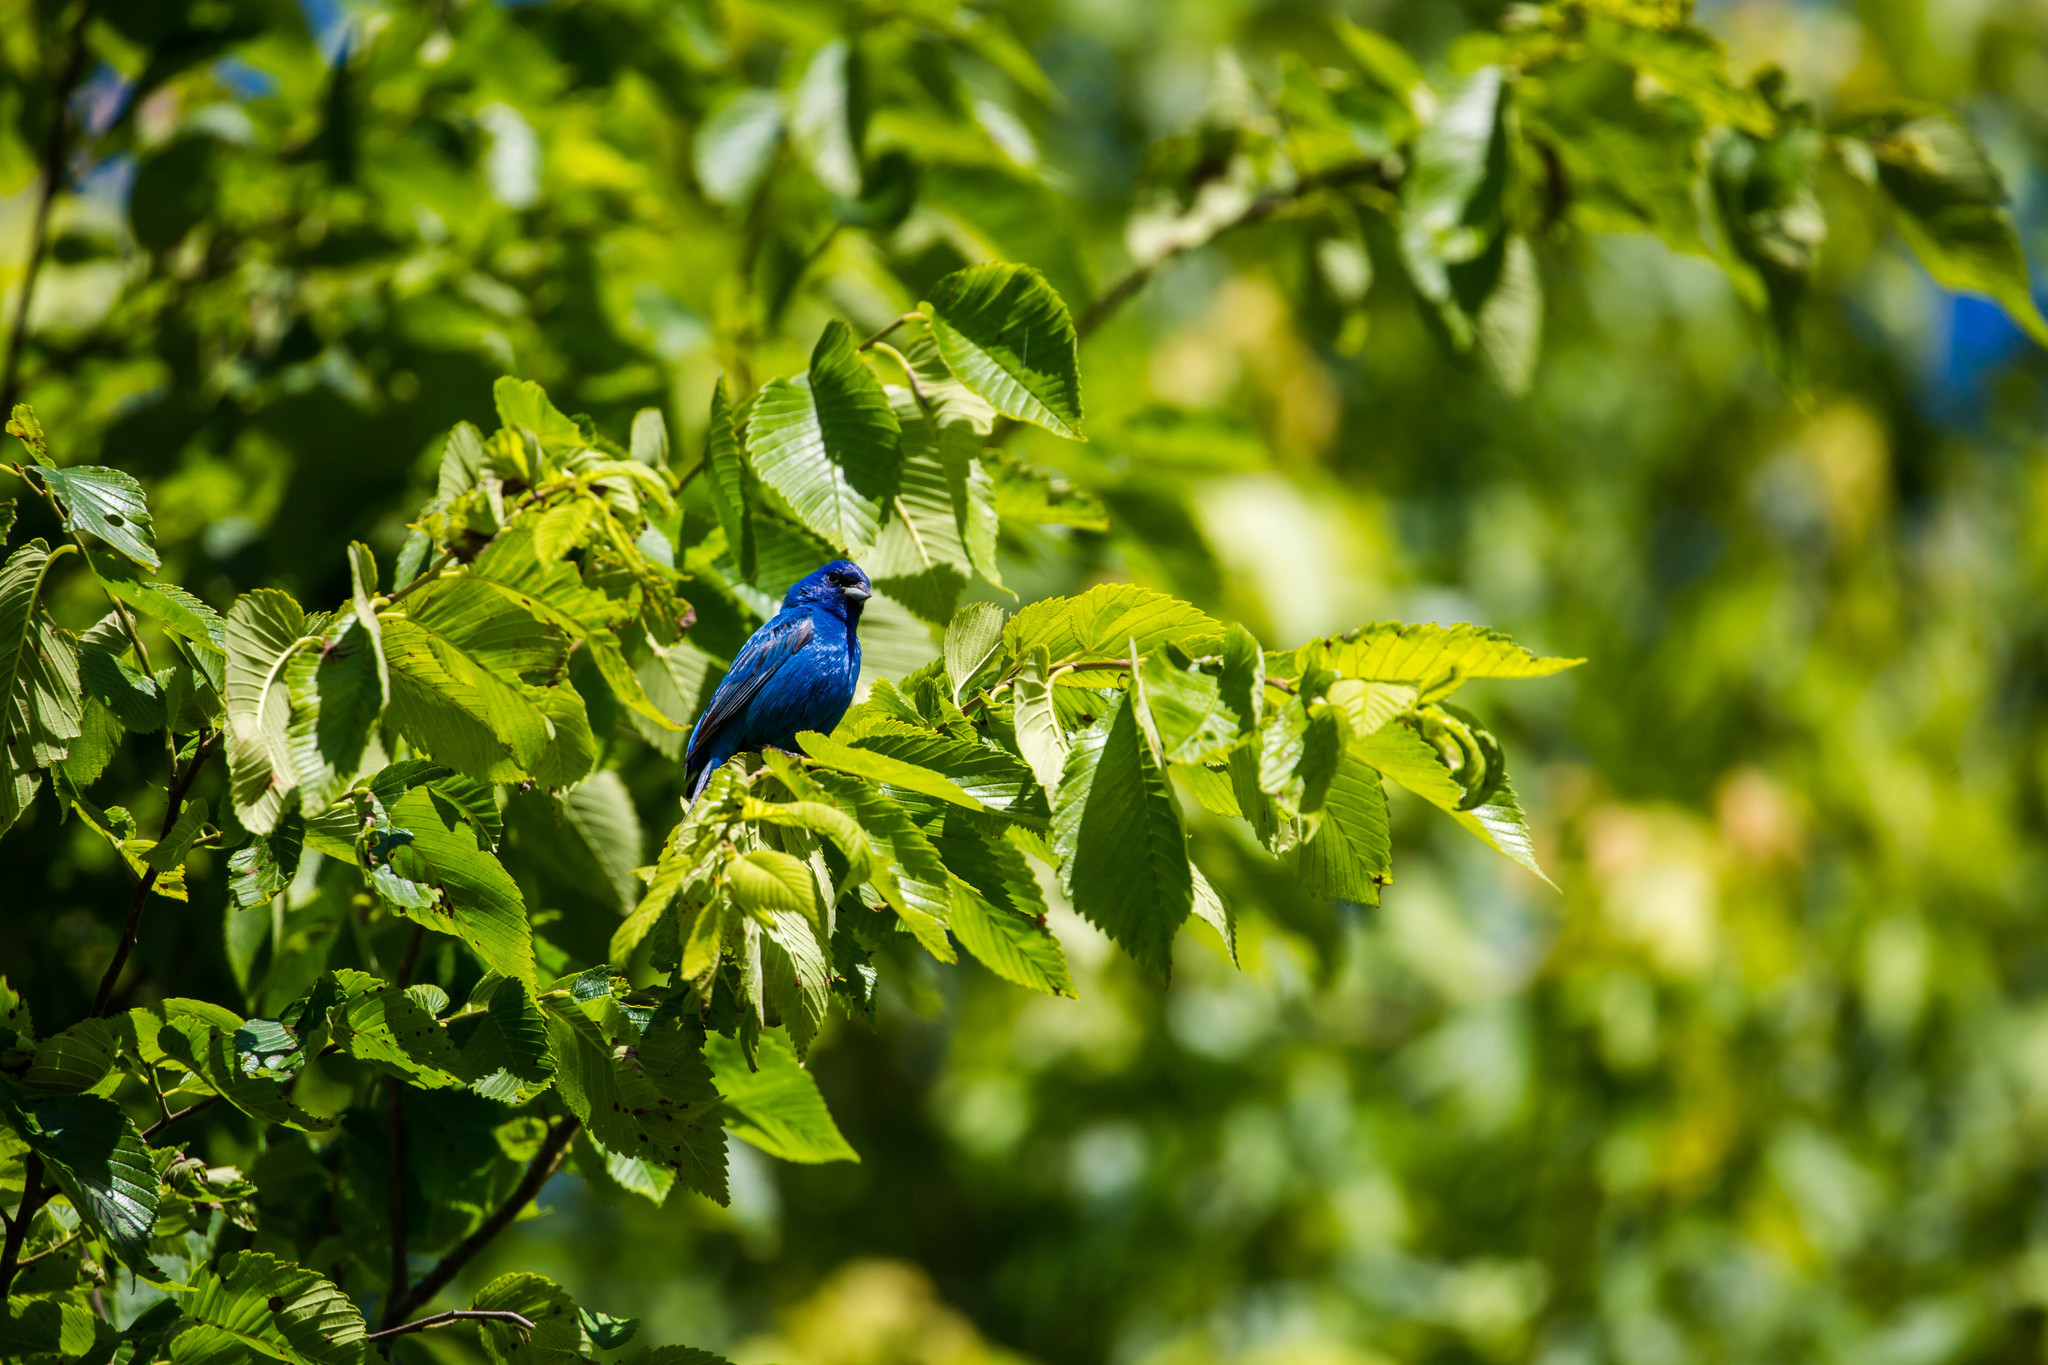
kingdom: Animalia
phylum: Chordata
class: Aves
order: Passeriformes
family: Cardinalidae
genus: Passerina
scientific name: Passerina cyanea
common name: Indigo bunting
